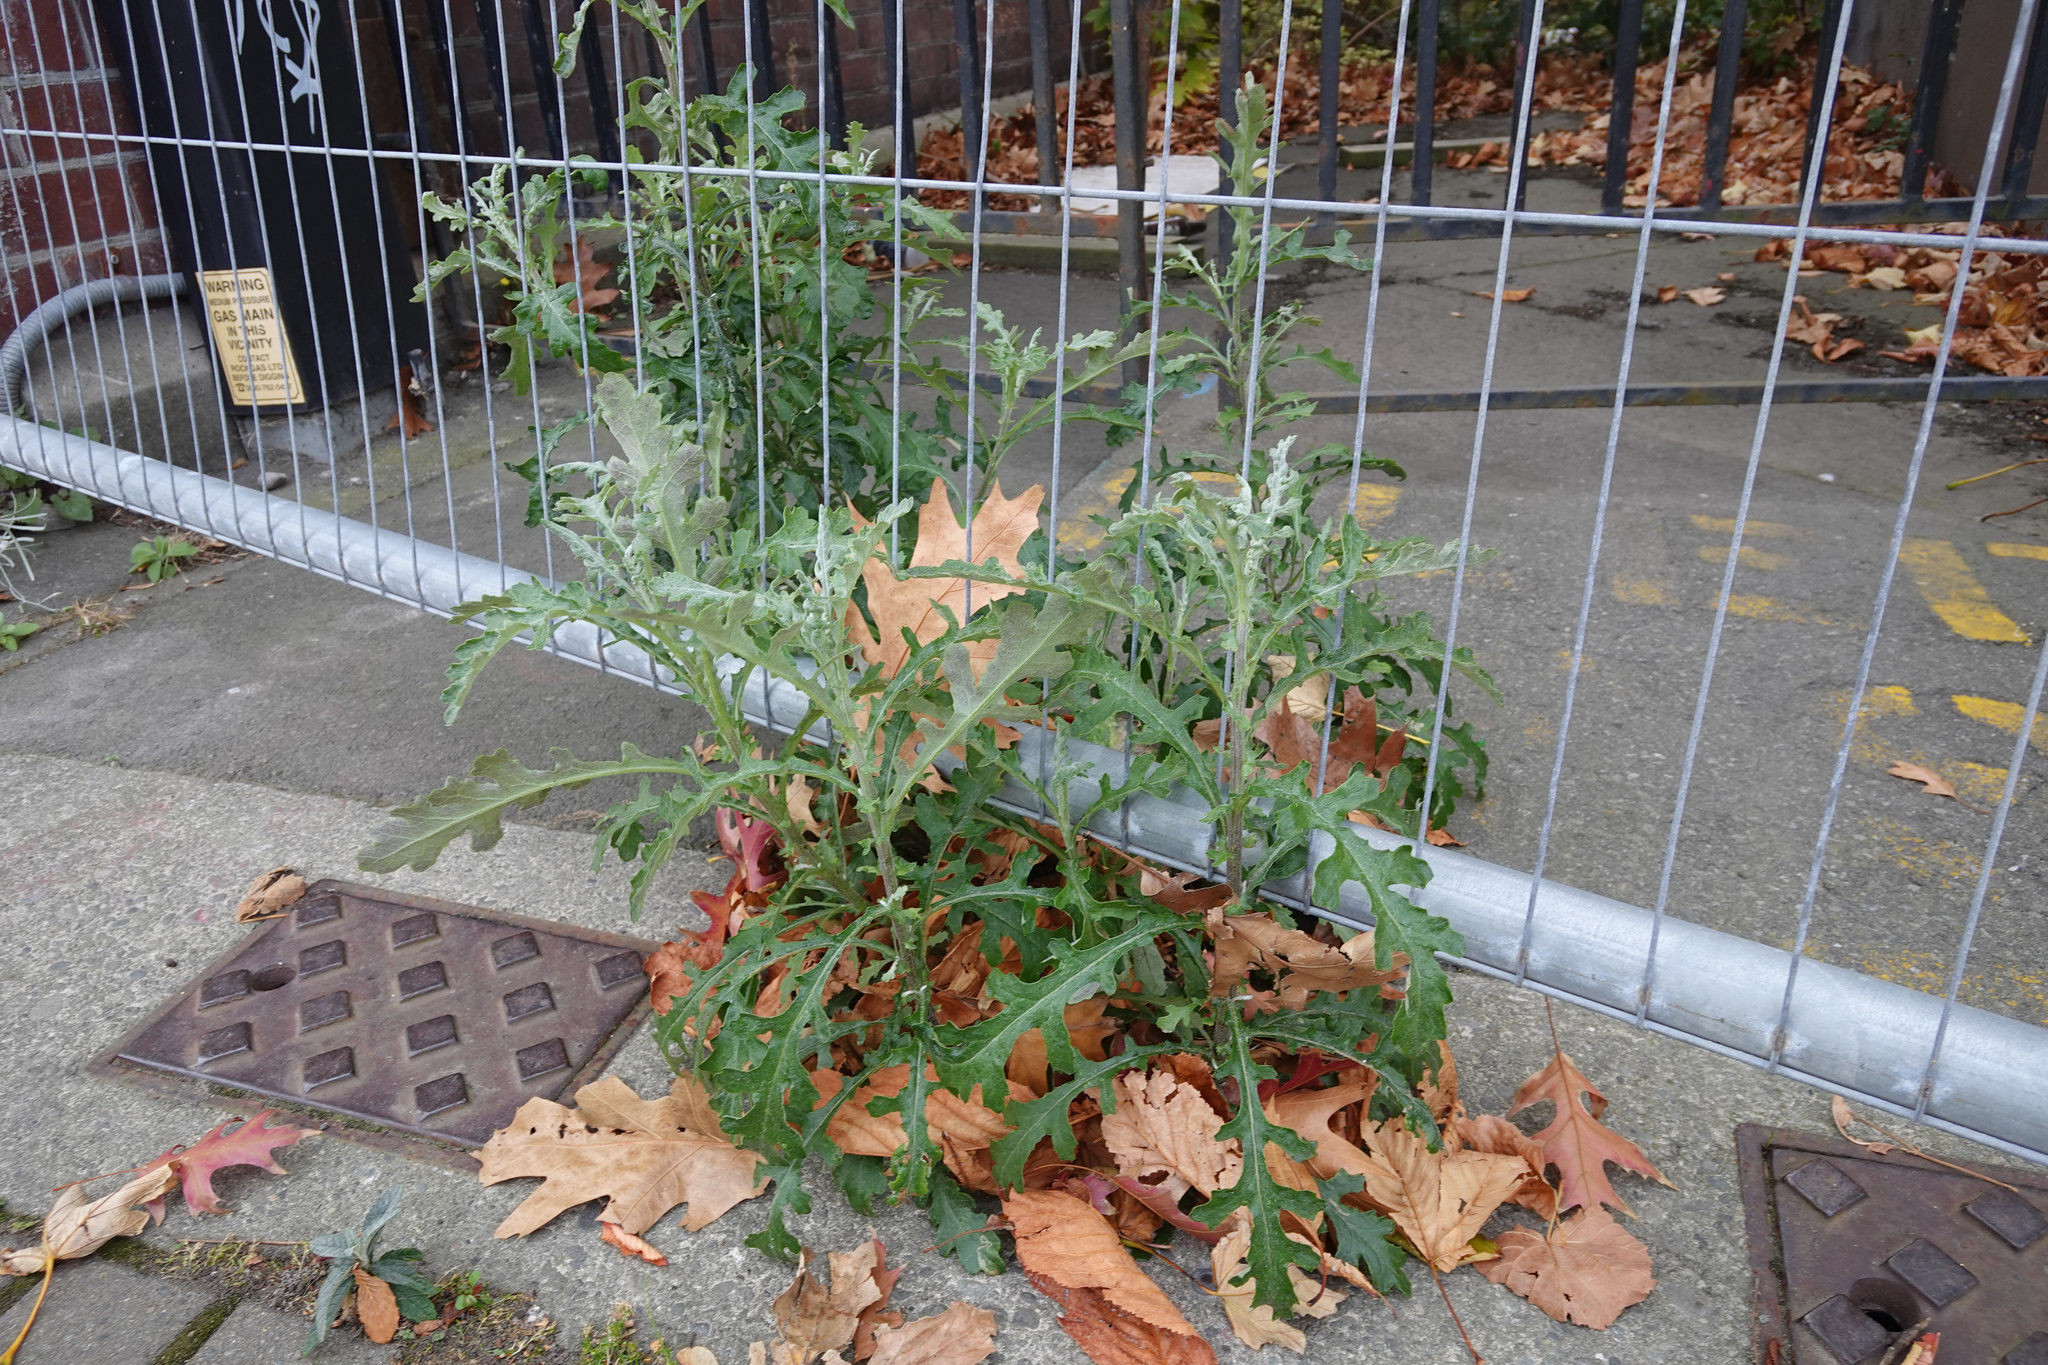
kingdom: Plantae
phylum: Tracheophyta
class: Magnoliopsida
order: Asterales
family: Asteraceae
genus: Senecio
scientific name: Senecio glomeratus
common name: Cutleaf burnweed
